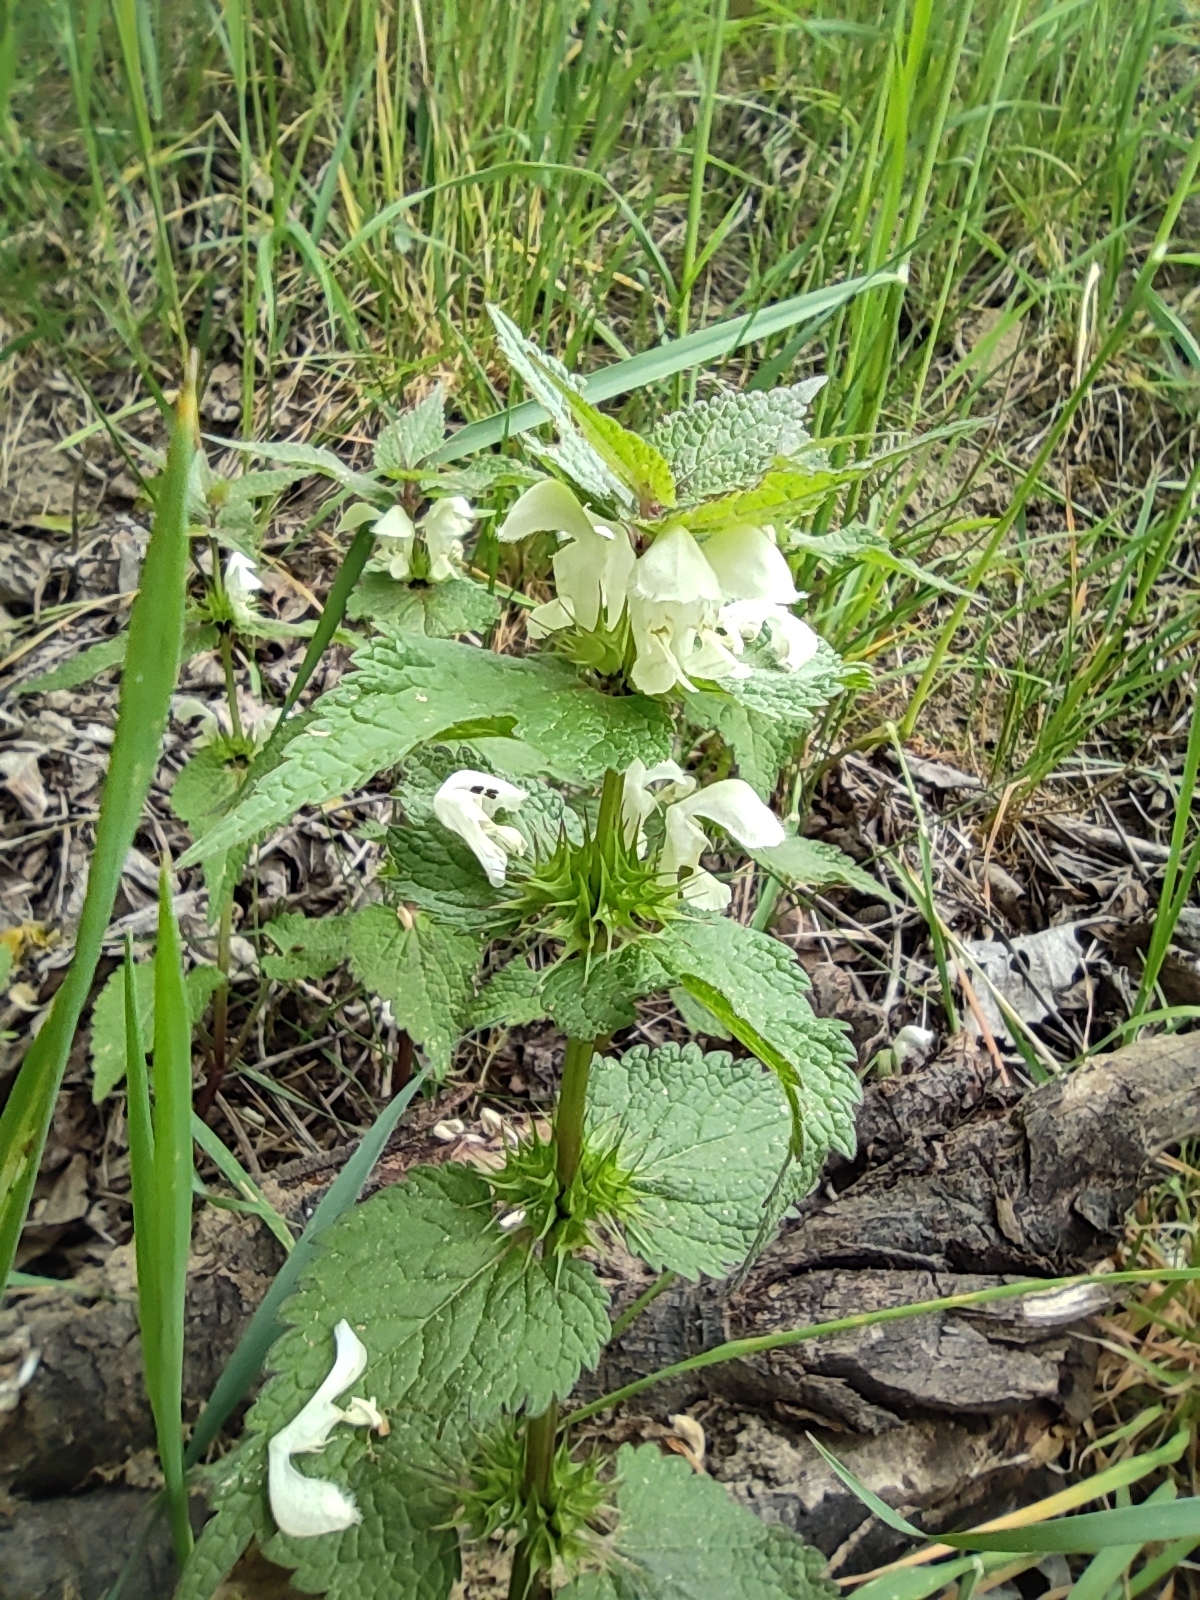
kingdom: Plantae
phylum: Tracheophyta
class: Magnoliopsida
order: Lamiales
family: Lamiaceae
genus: Lamium
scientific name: Lamium album
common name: White dead-nettle
